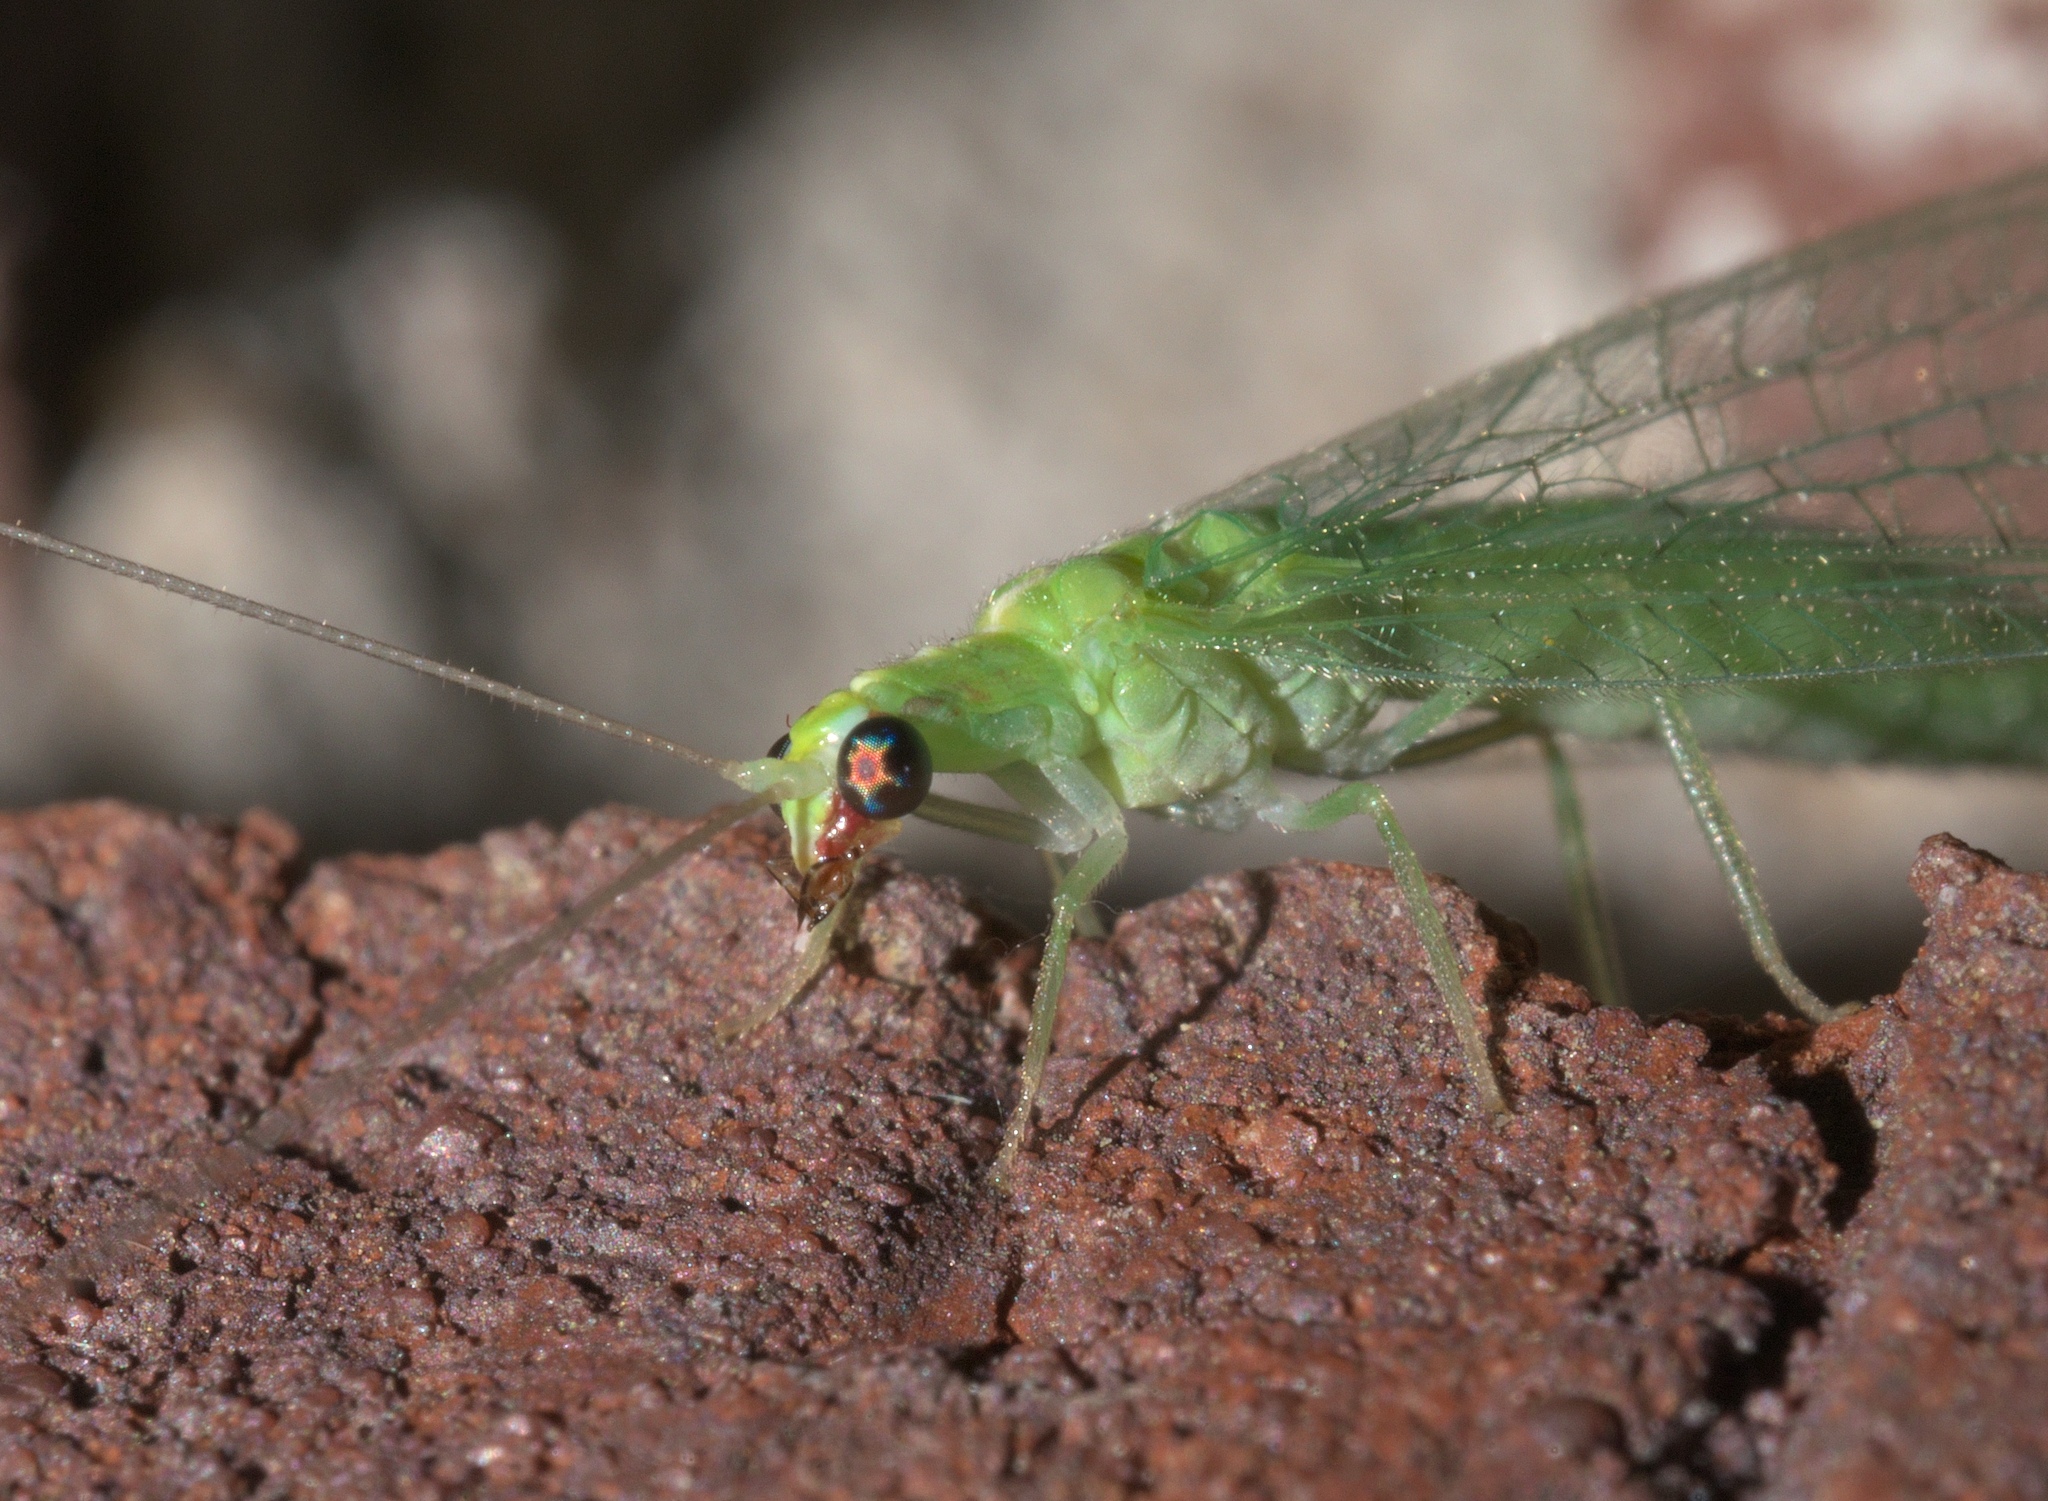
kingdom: Animalia
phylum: Arthropoda
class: Insecta
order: Neuroptera
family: Chrysopidae
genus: Chrysoperla
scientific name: Chrysoperla rufilabris
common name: Red-lipped green lacewing
